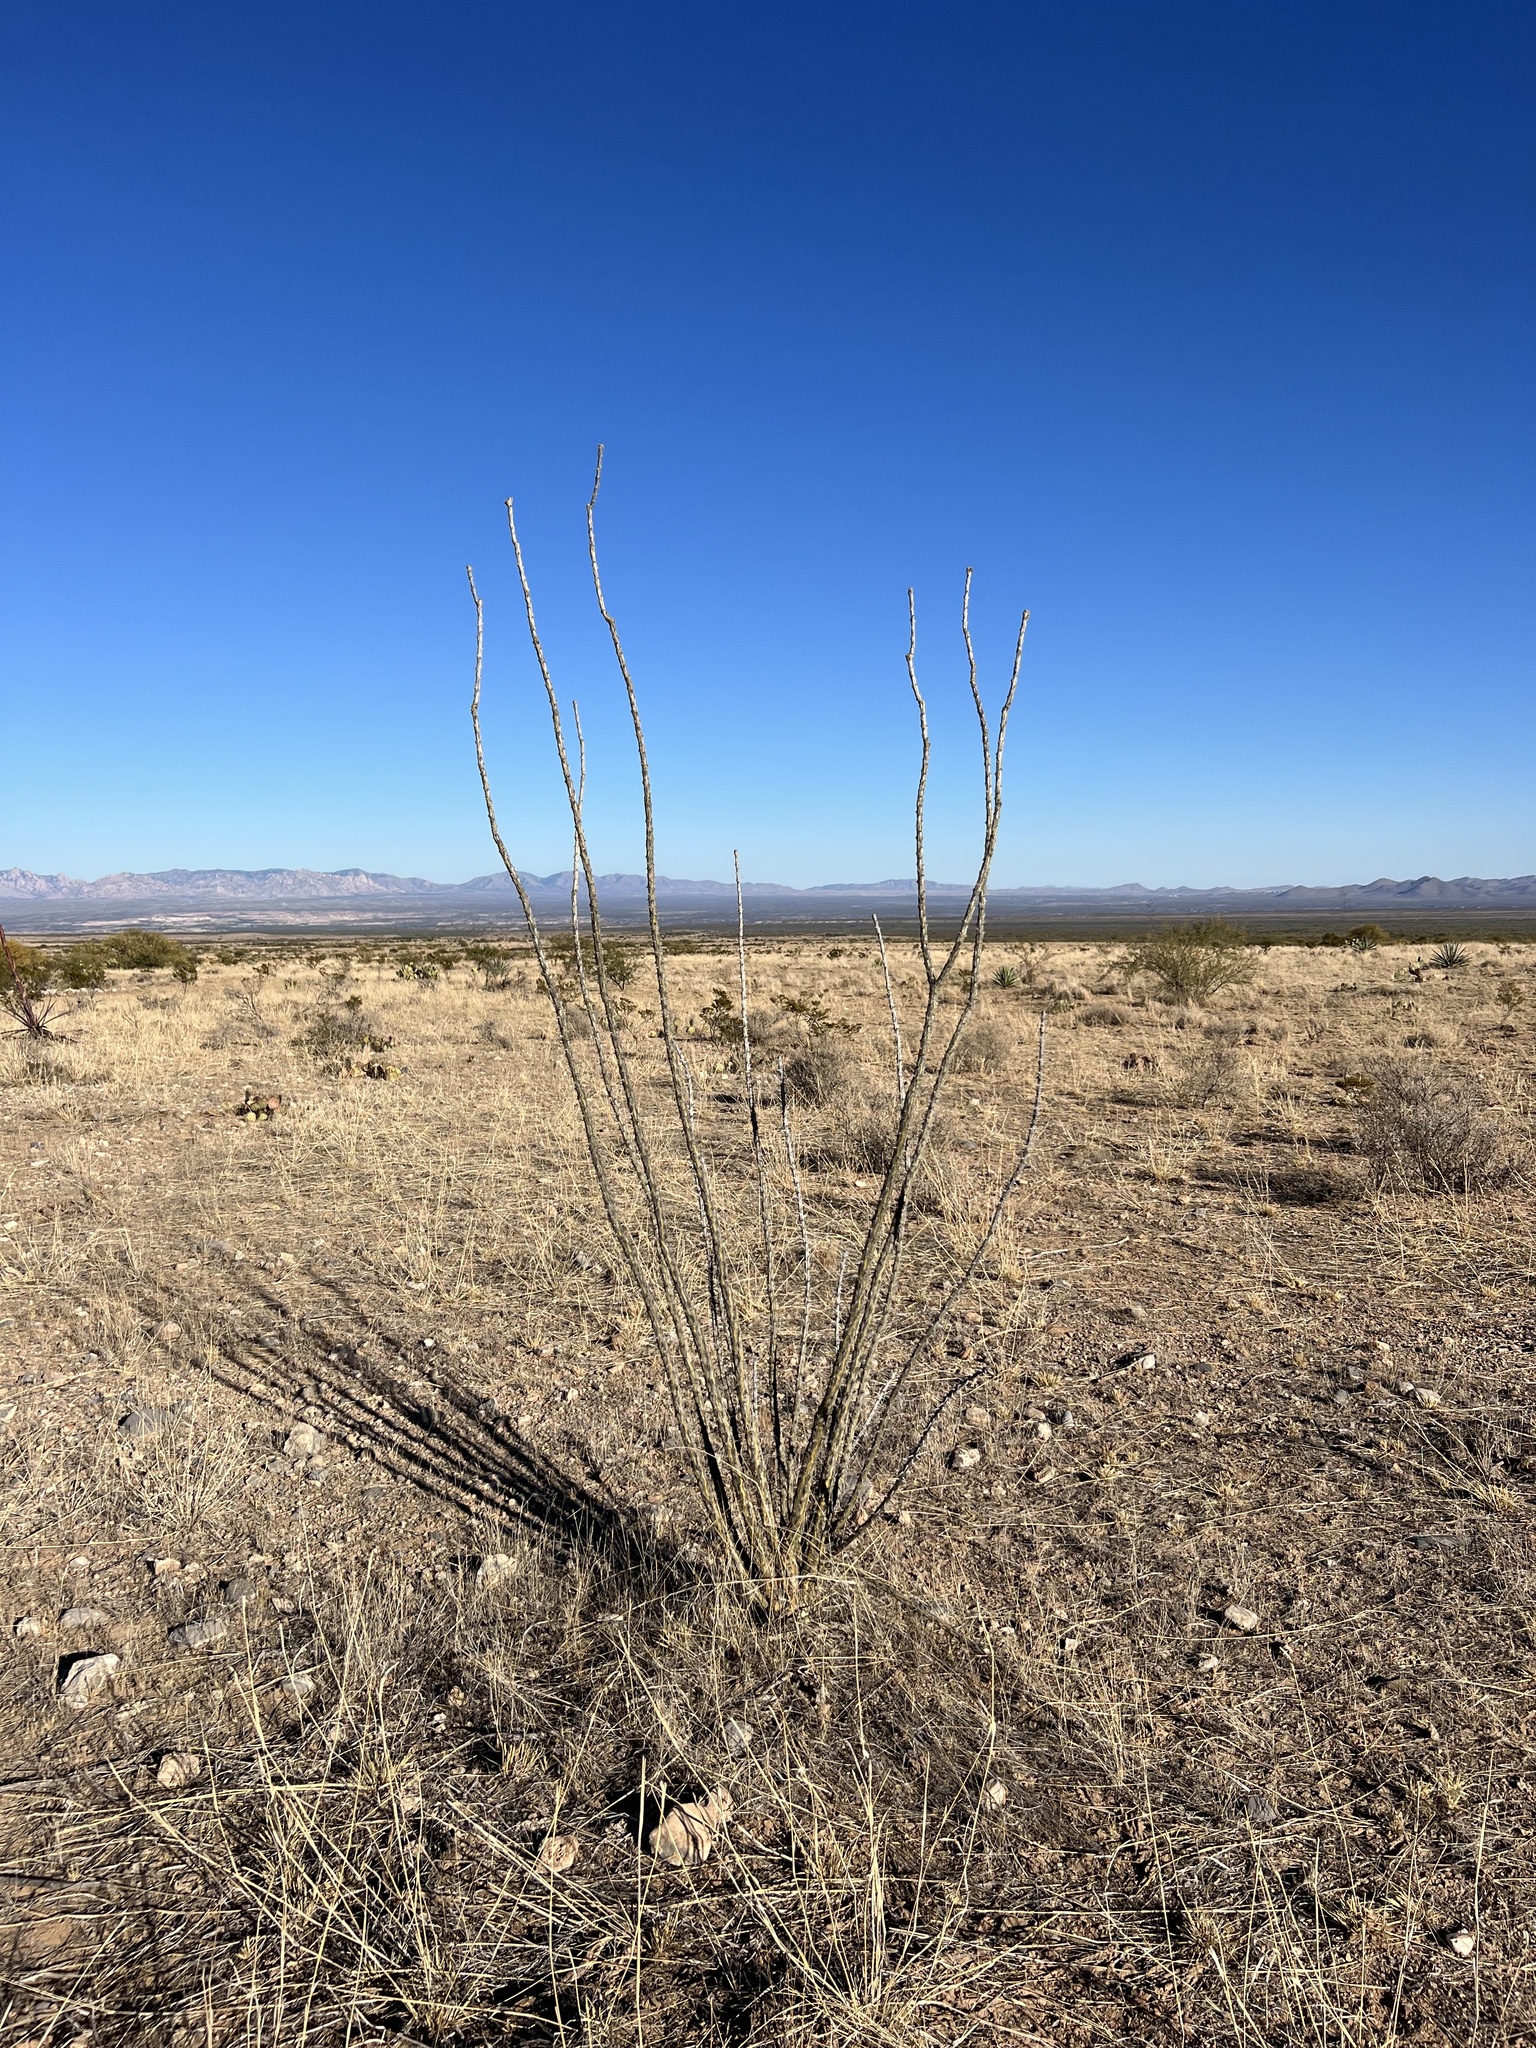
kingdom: Plantae
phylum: Tracheophyta
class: Magnoliopsida
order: Ericales
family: Fouquieriaceae
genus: Fouquieria
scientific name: Fouquieria splendens
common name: Vine-cactus
